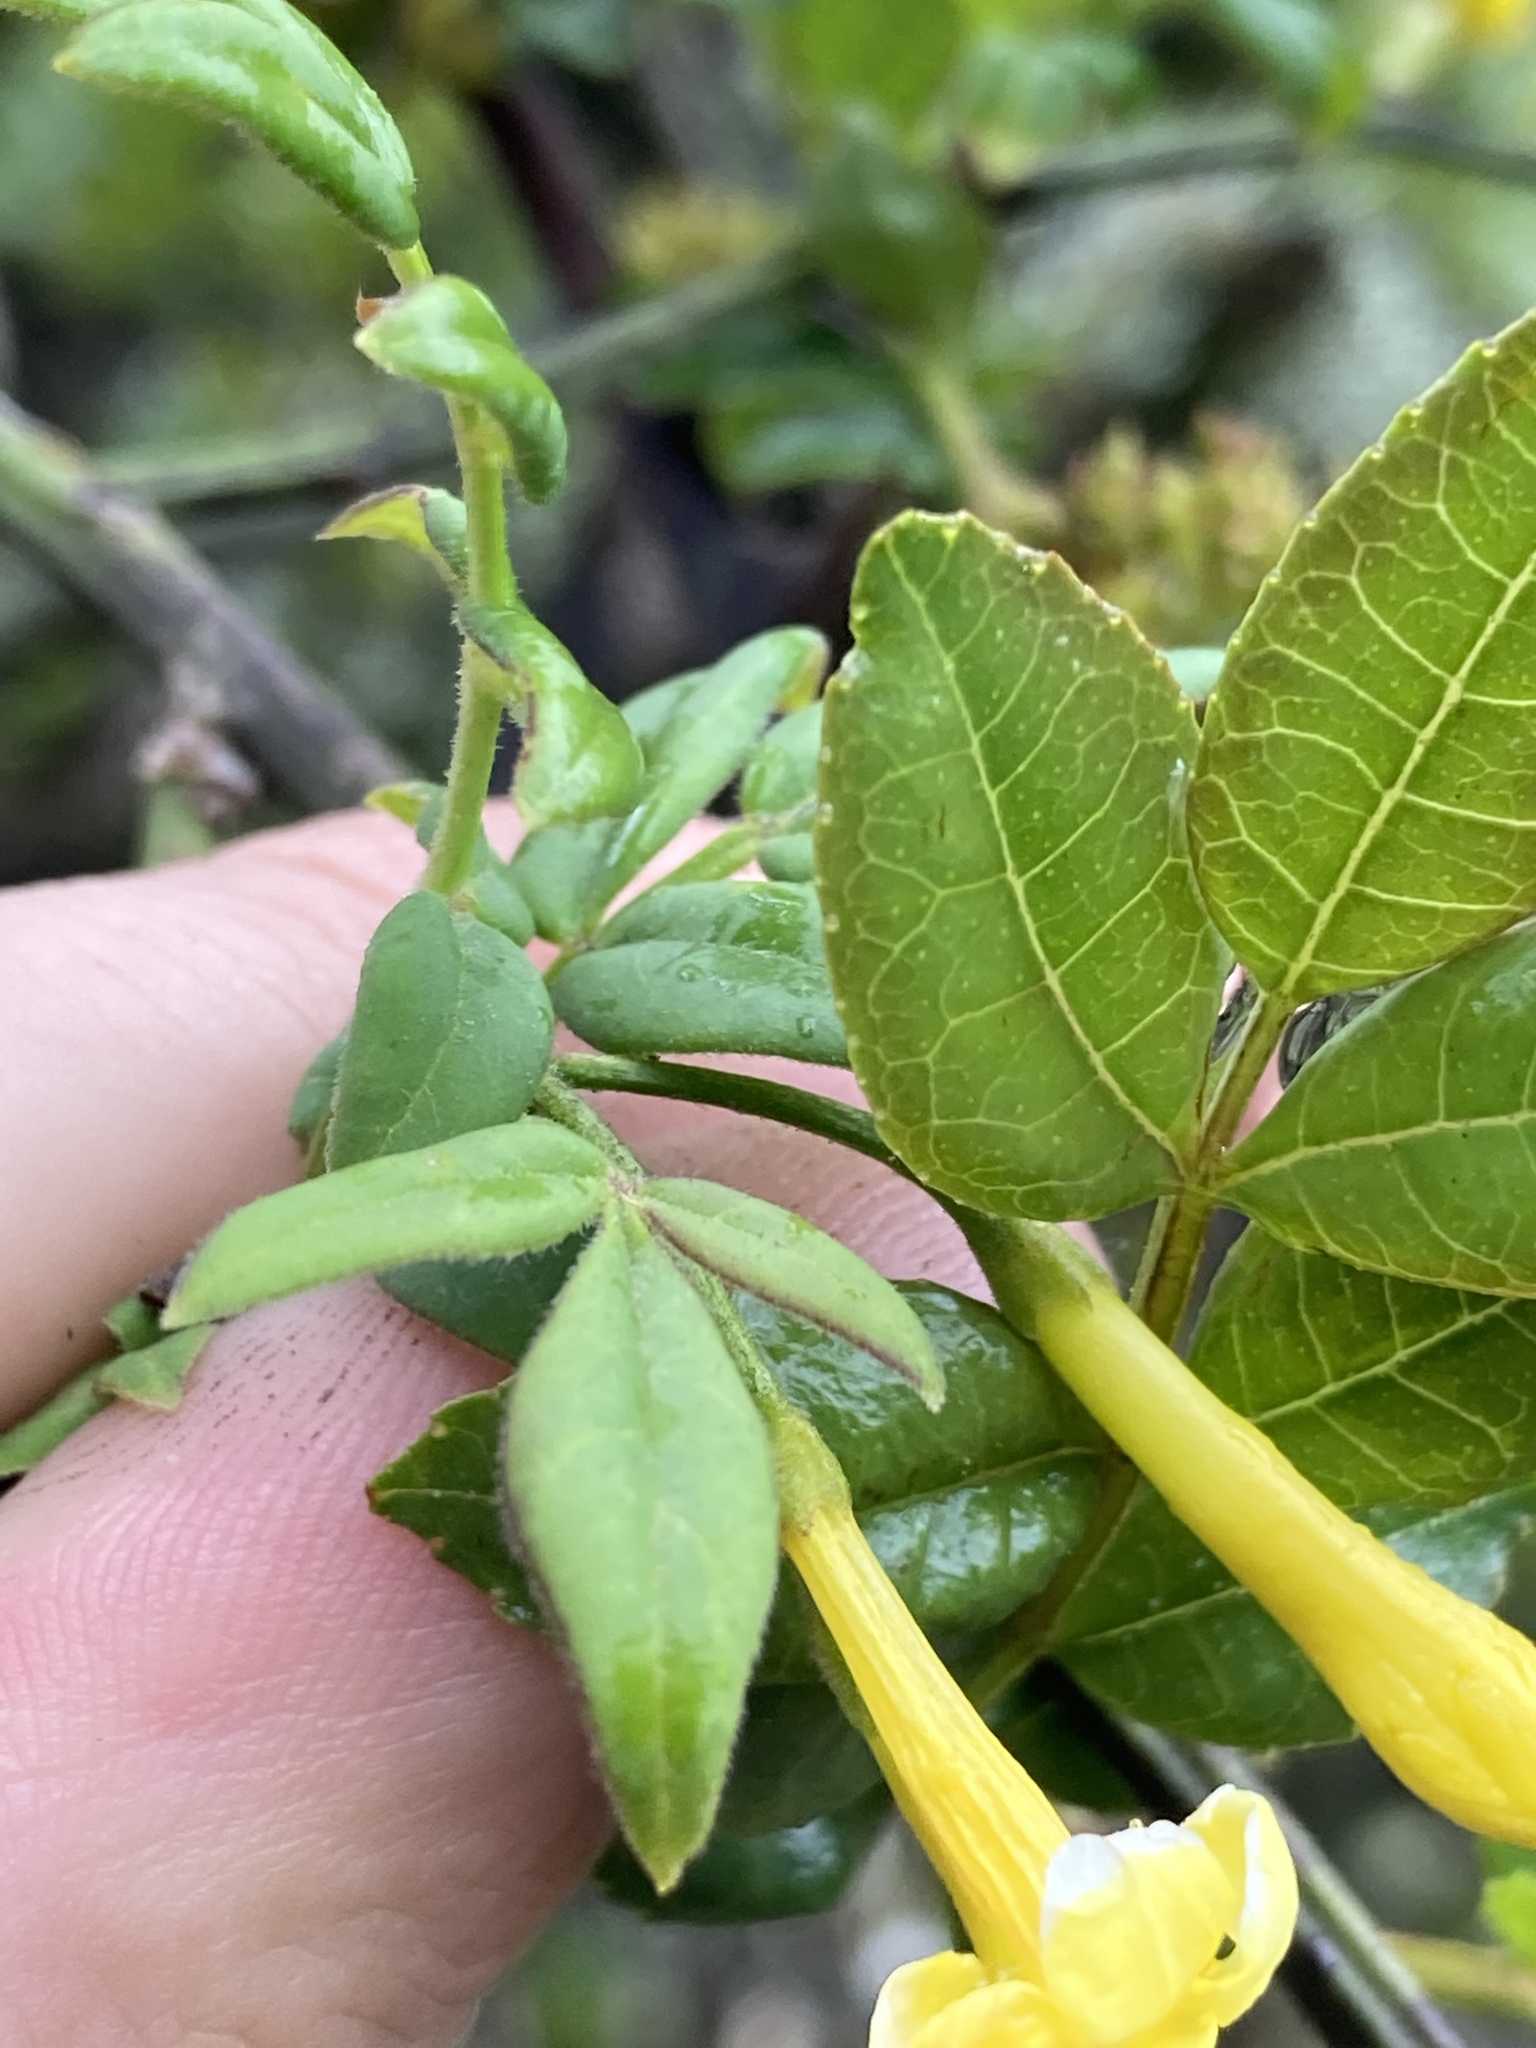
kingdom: Plantae
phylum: Tracheophyta
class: Magnoliopsida
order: Lamiales
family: Oleaceae
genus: Chrysojasminum
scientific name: Chrysojasminum humile
